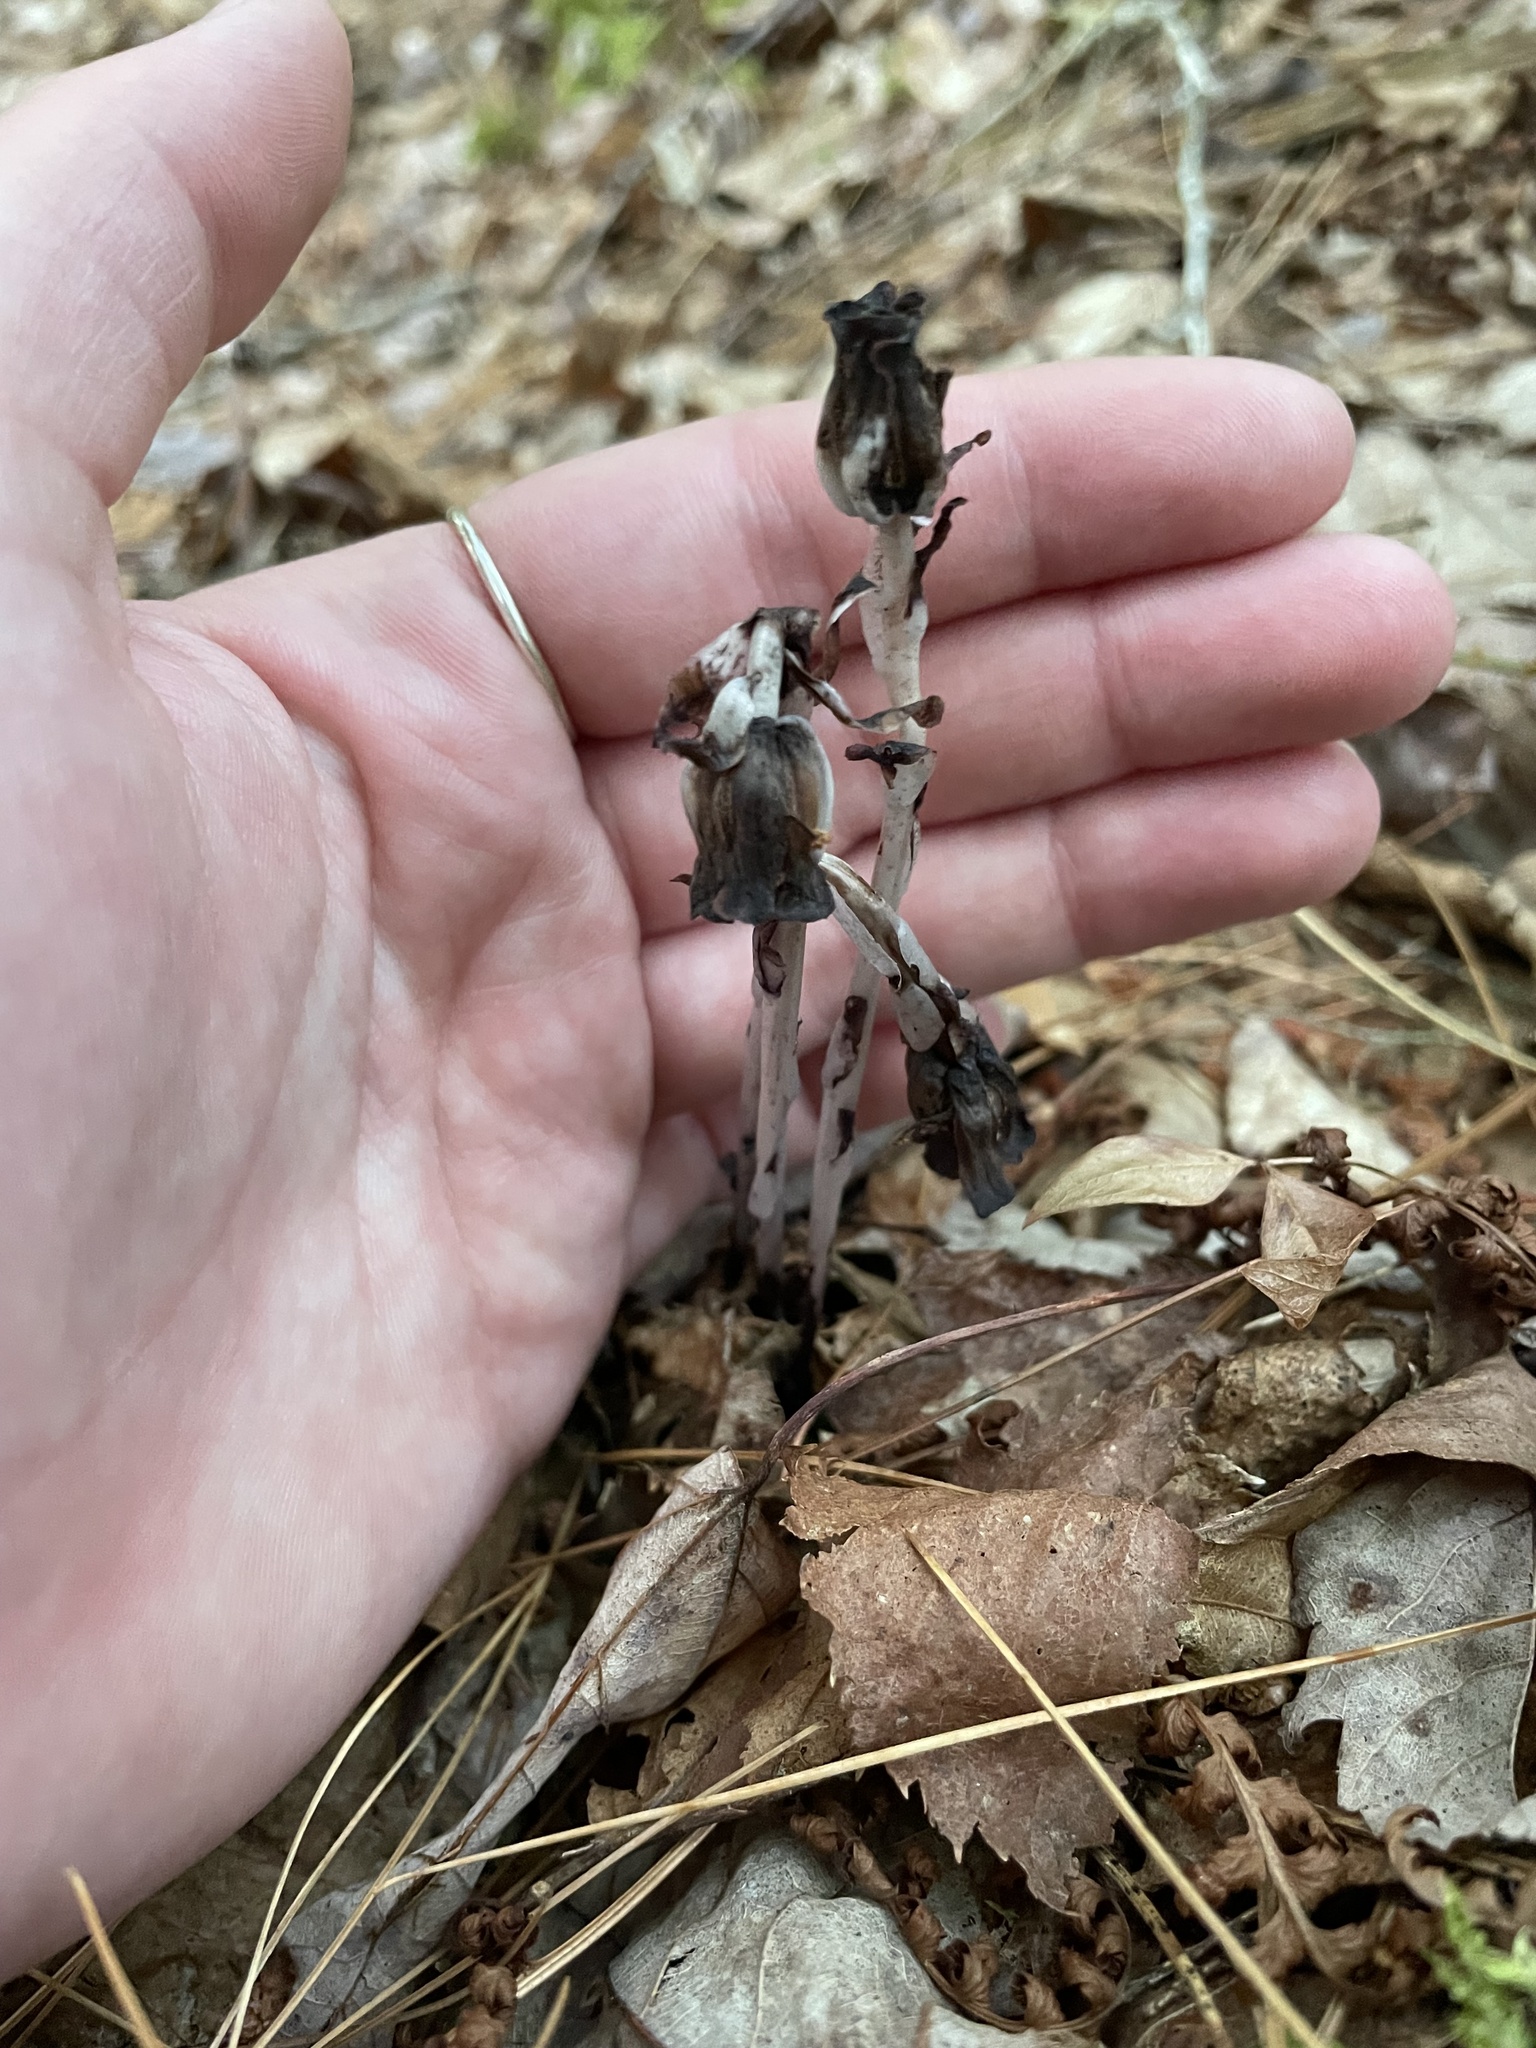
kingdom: Plantae
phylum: Tracheophyta
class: Magnoliopsida
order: Ericales
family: Ericaceae
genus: Monotropa
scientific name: Monotropa uniflora
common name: Convulsion root
